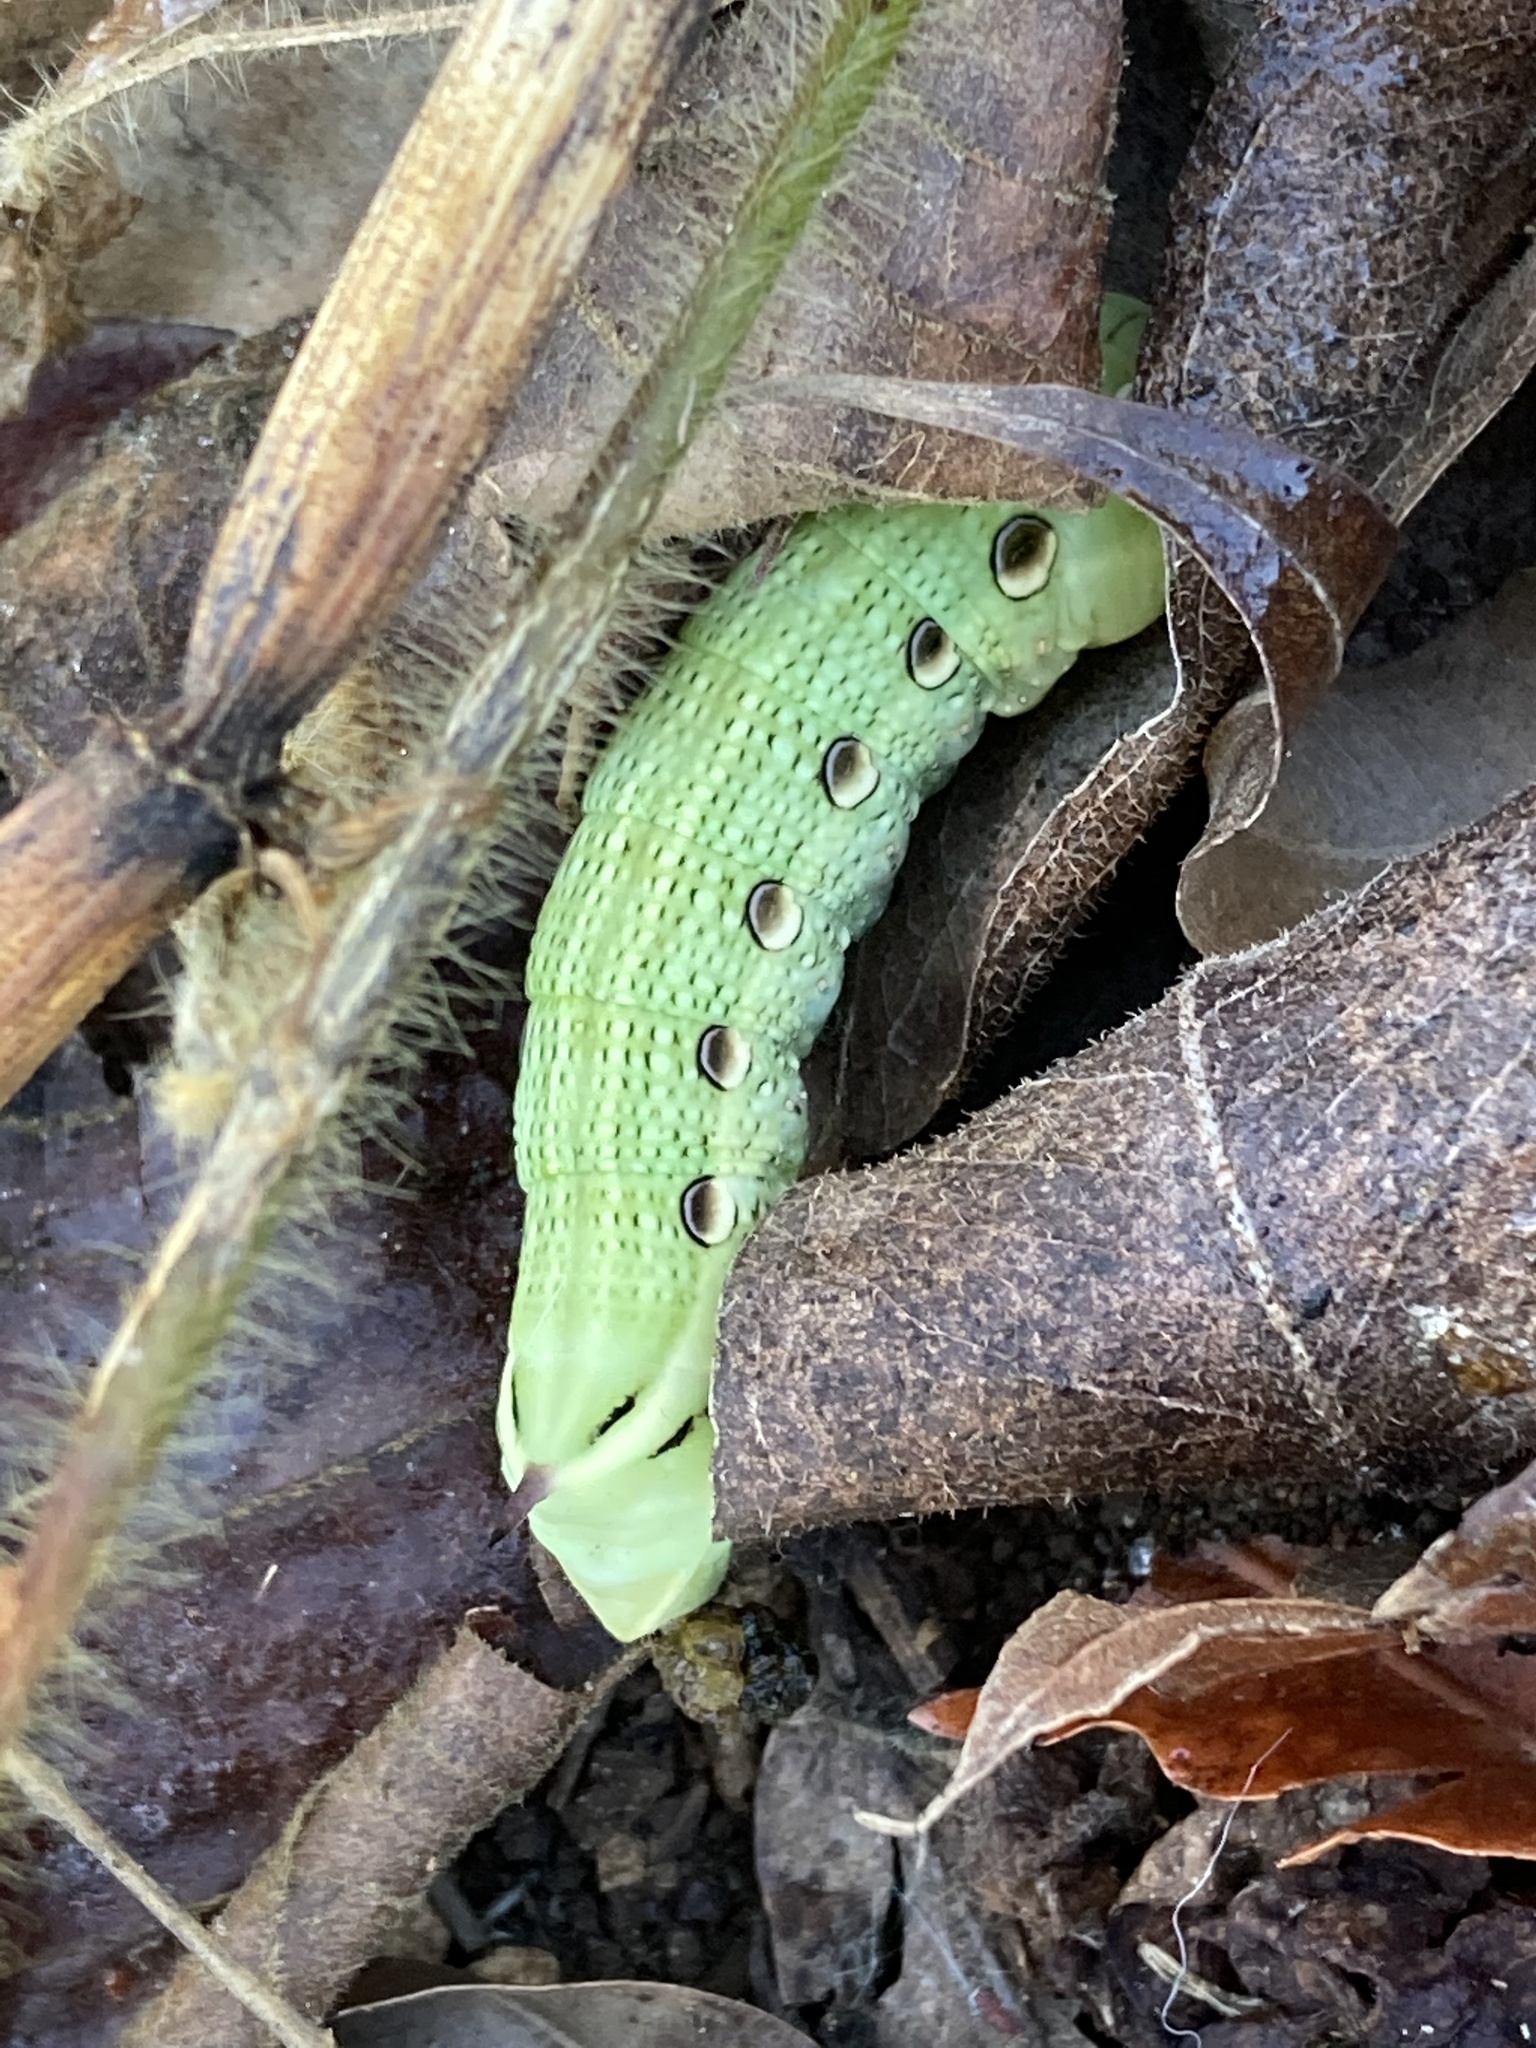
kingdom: Animalia
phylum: Arthropoda
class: Insecta
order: Lepidoptera
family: Sphingidae
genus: Xylophanes
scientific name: Xylophanes tersa
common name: Tersa sphinx
